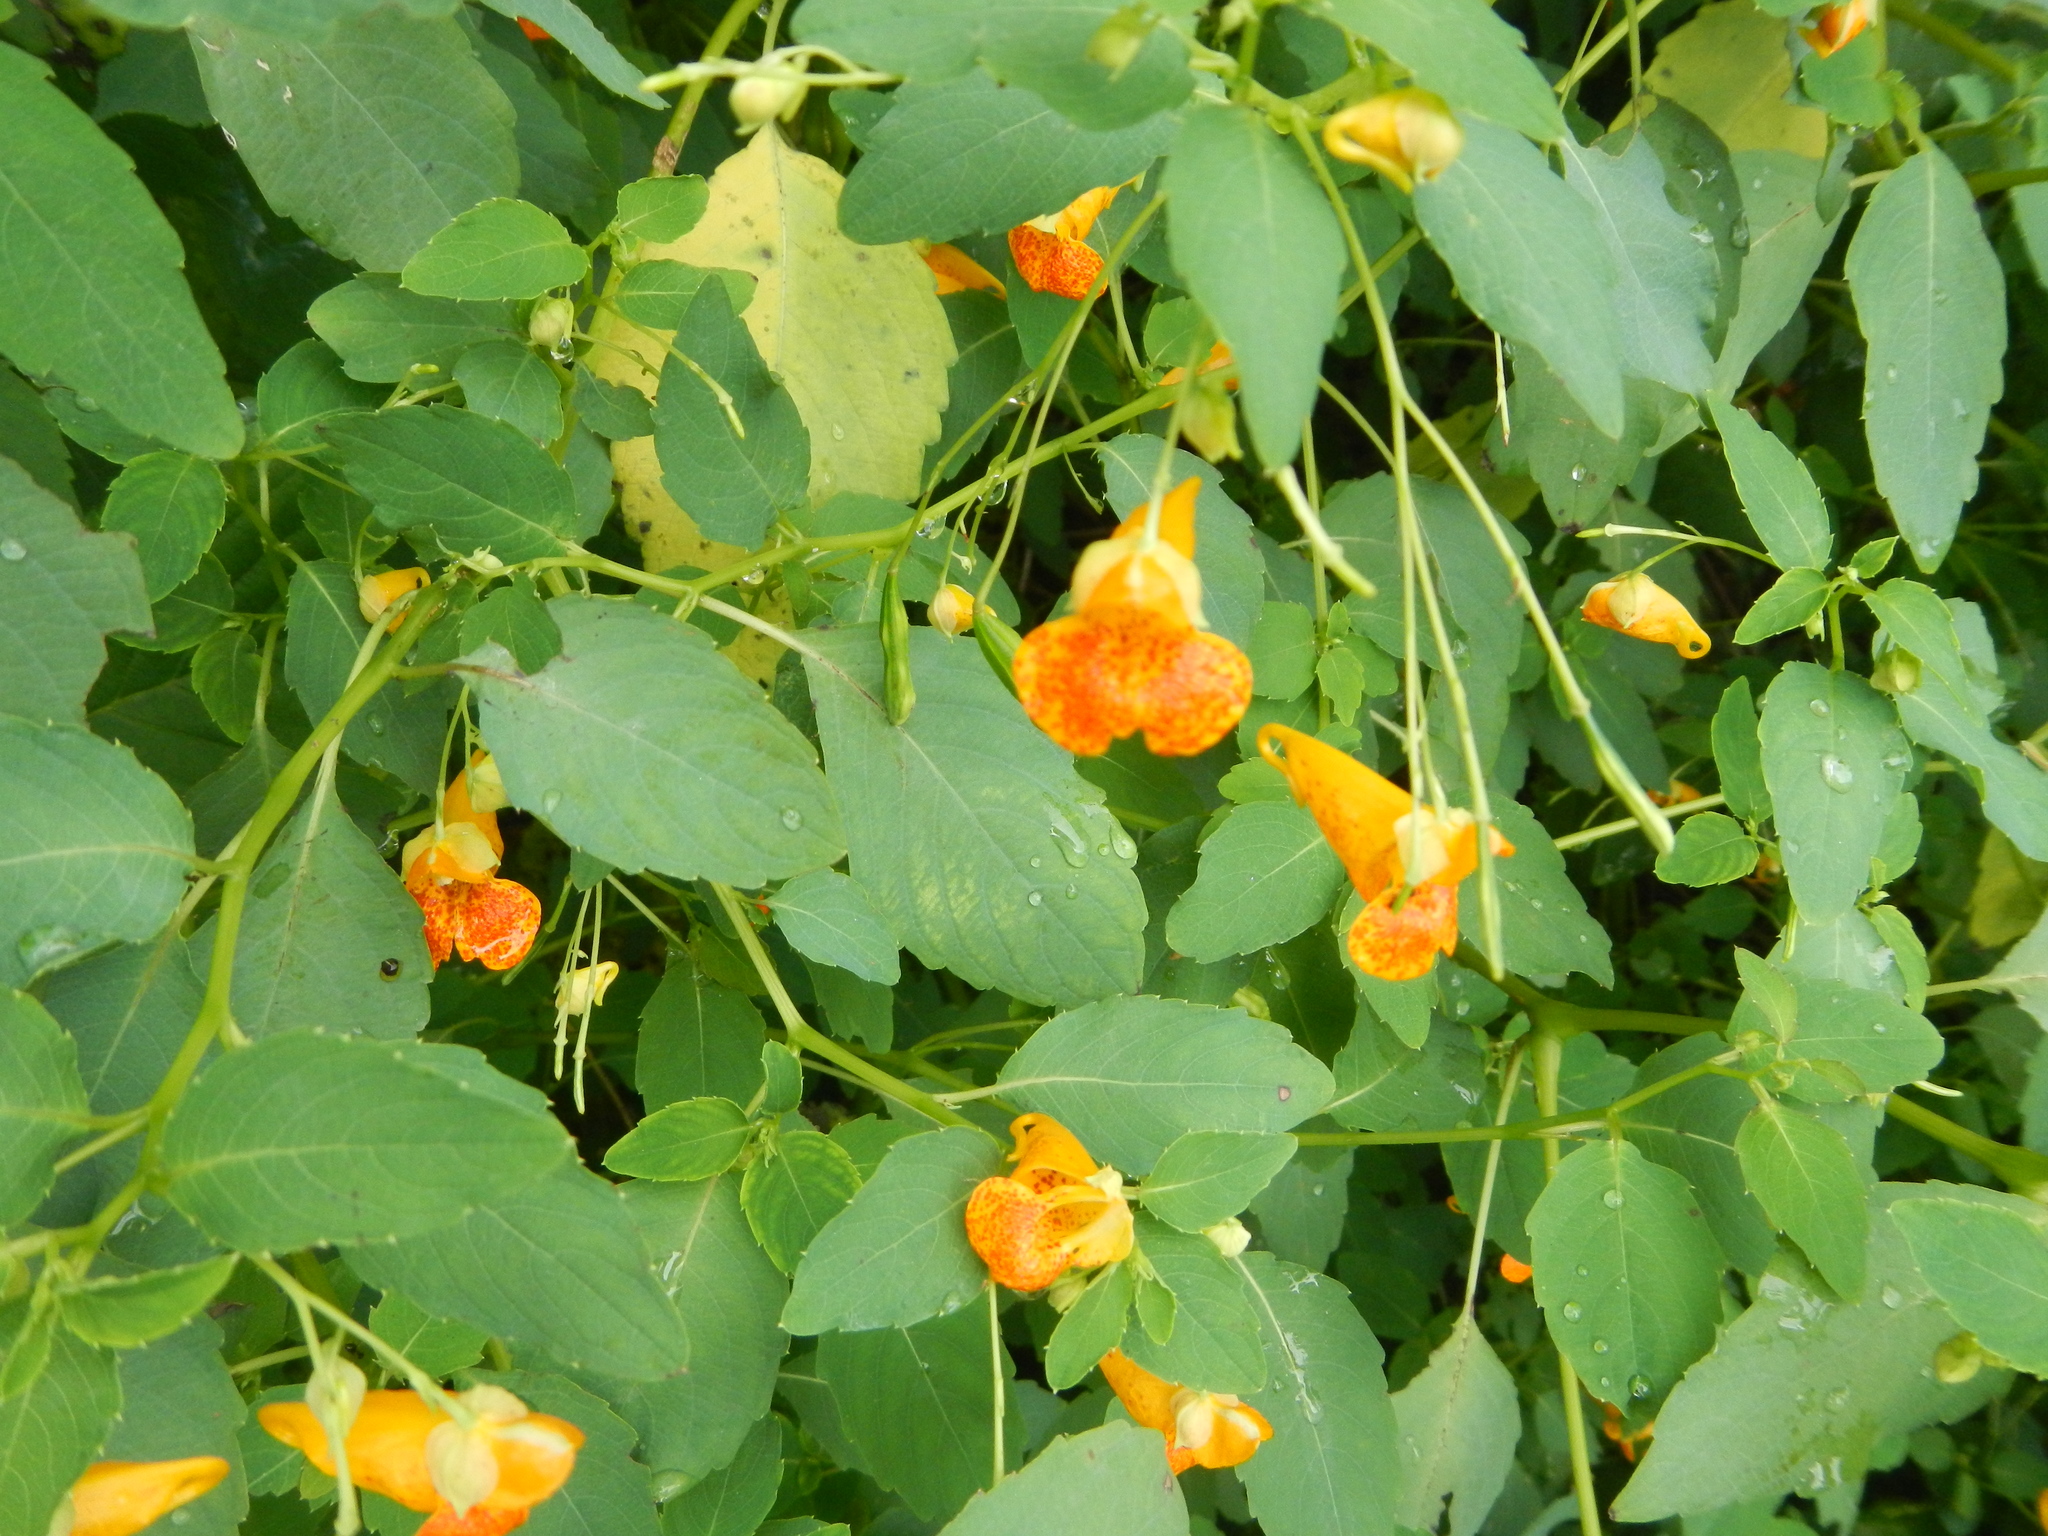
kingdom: Plantae
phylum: Tracheophyta
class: Magnoliopsida
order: Ericales
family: Balsaminaceae
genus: Impatiens
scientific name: Impatiens capensis
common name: Orange balsam
